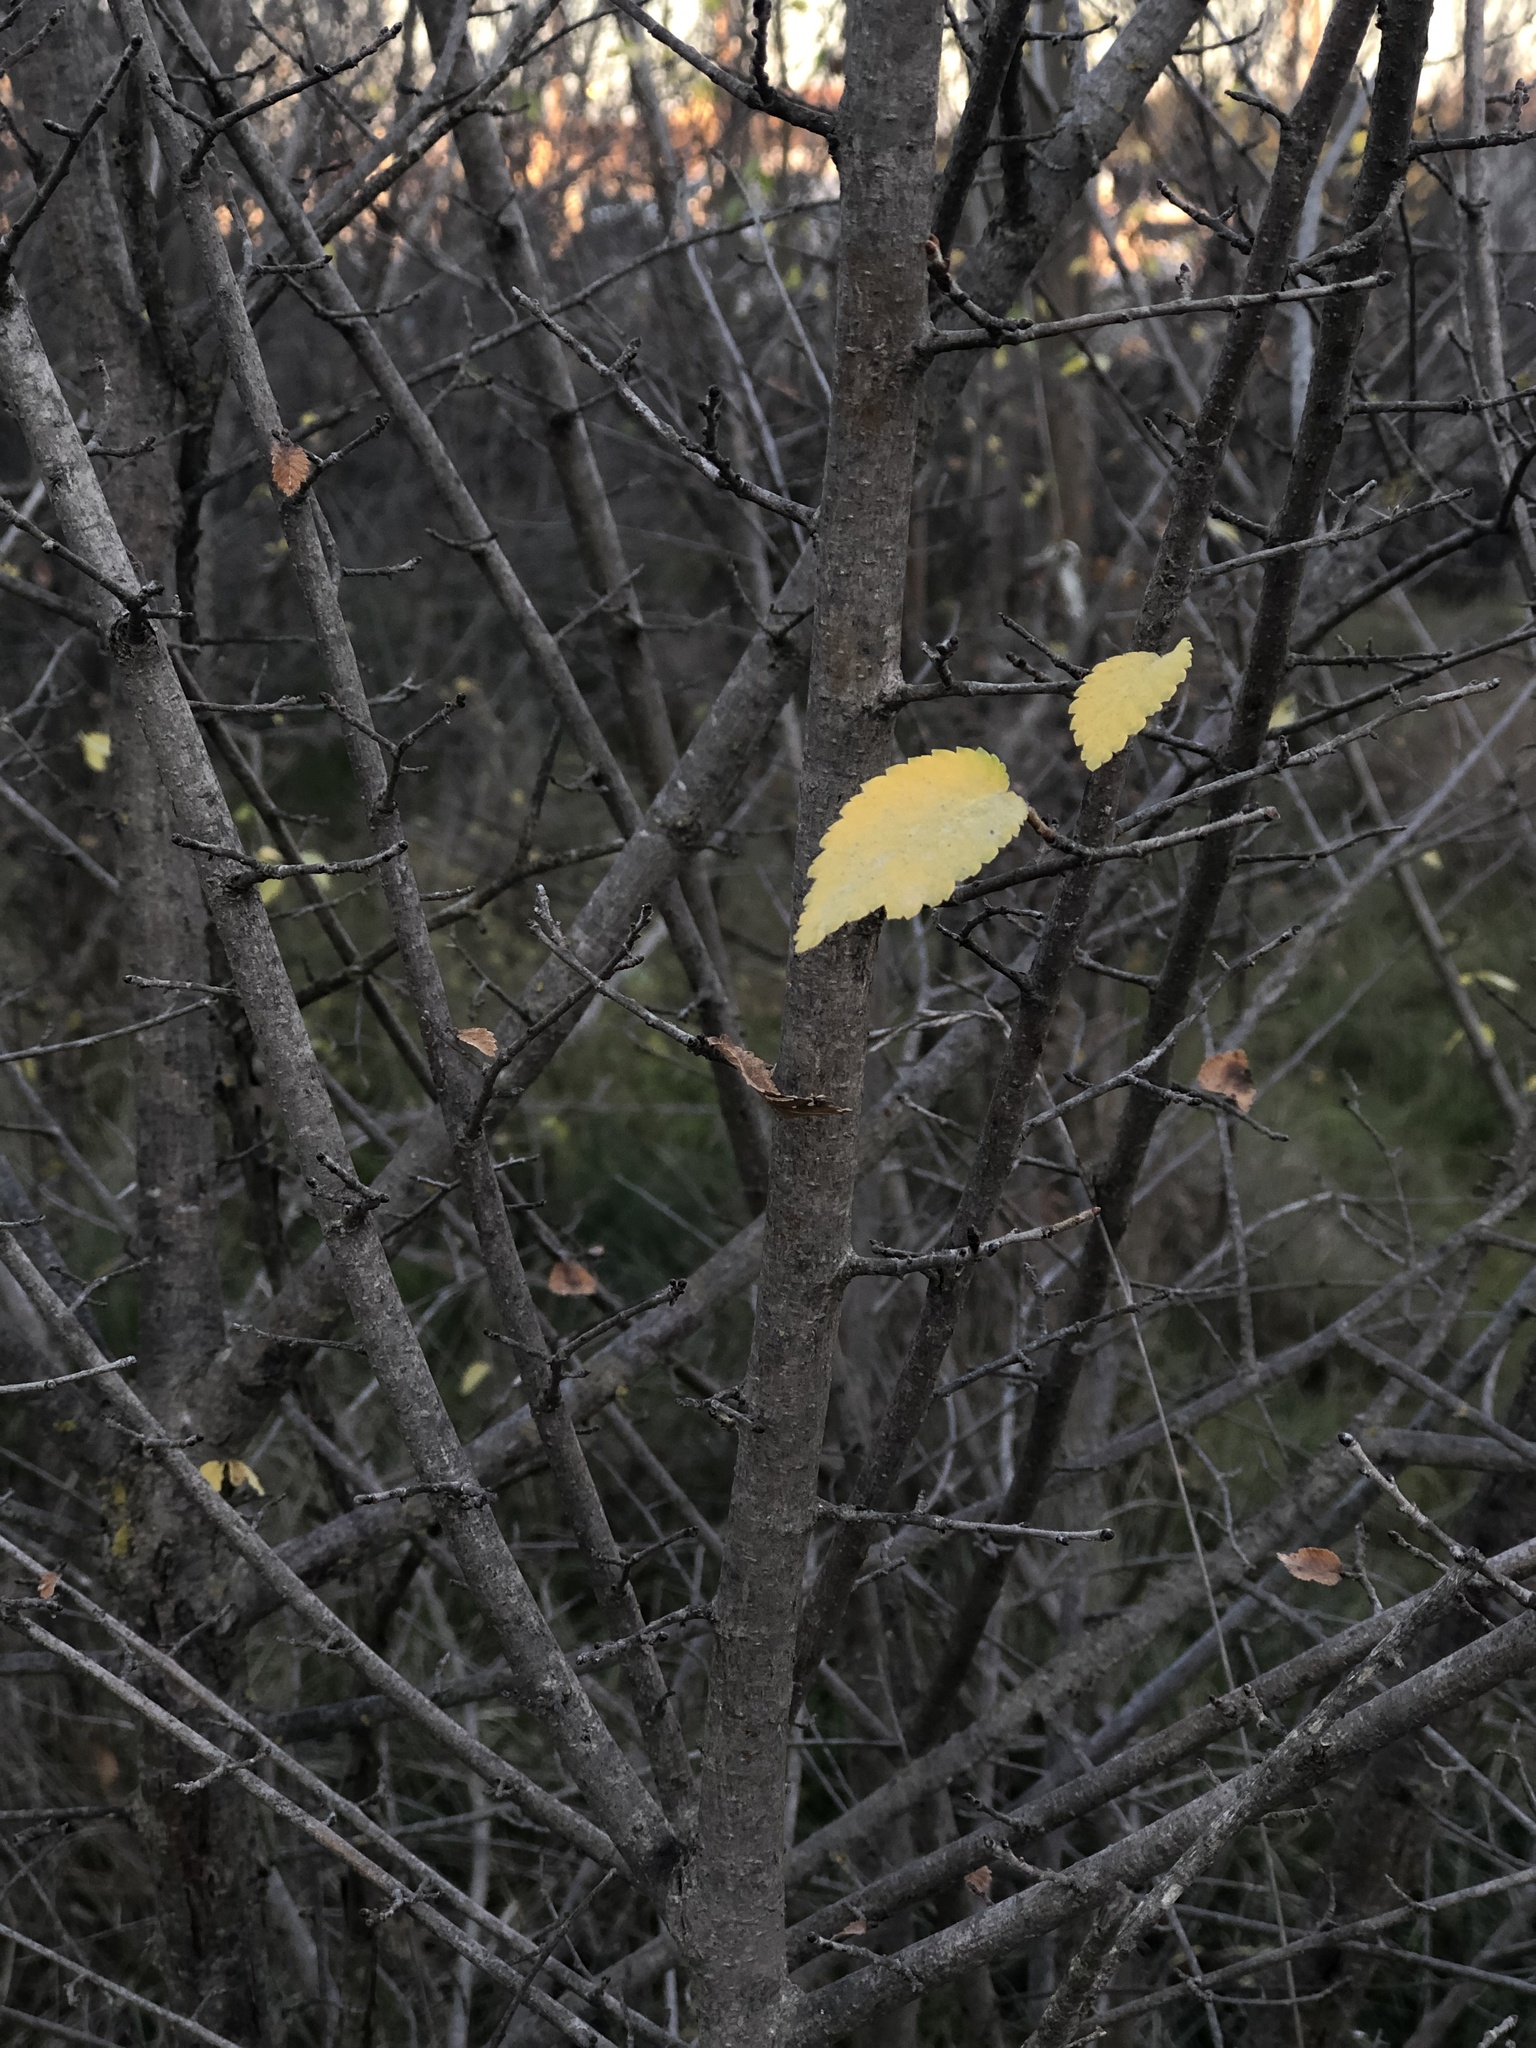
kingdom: Plantae
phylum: Tracheophyta
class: Magnoliopsida
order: Rosales
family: Ulmaceae
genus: Ulmus
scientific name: Ulmus minor
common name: Small-leaved elm
